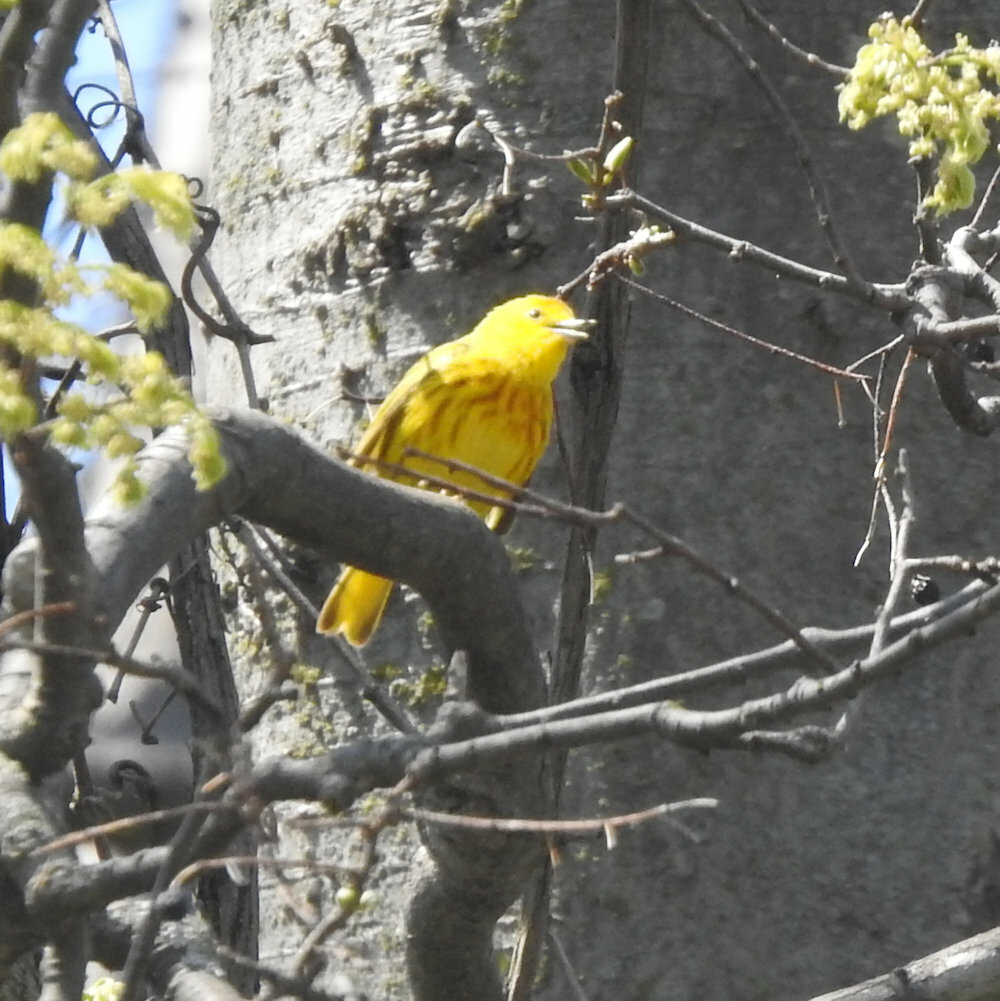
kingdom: Animalia
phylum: Chordata
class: Aves
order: Passeriformes
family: Parulidae
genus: Setophaga
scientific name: Setophaga petechia
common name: Yellow warbler
